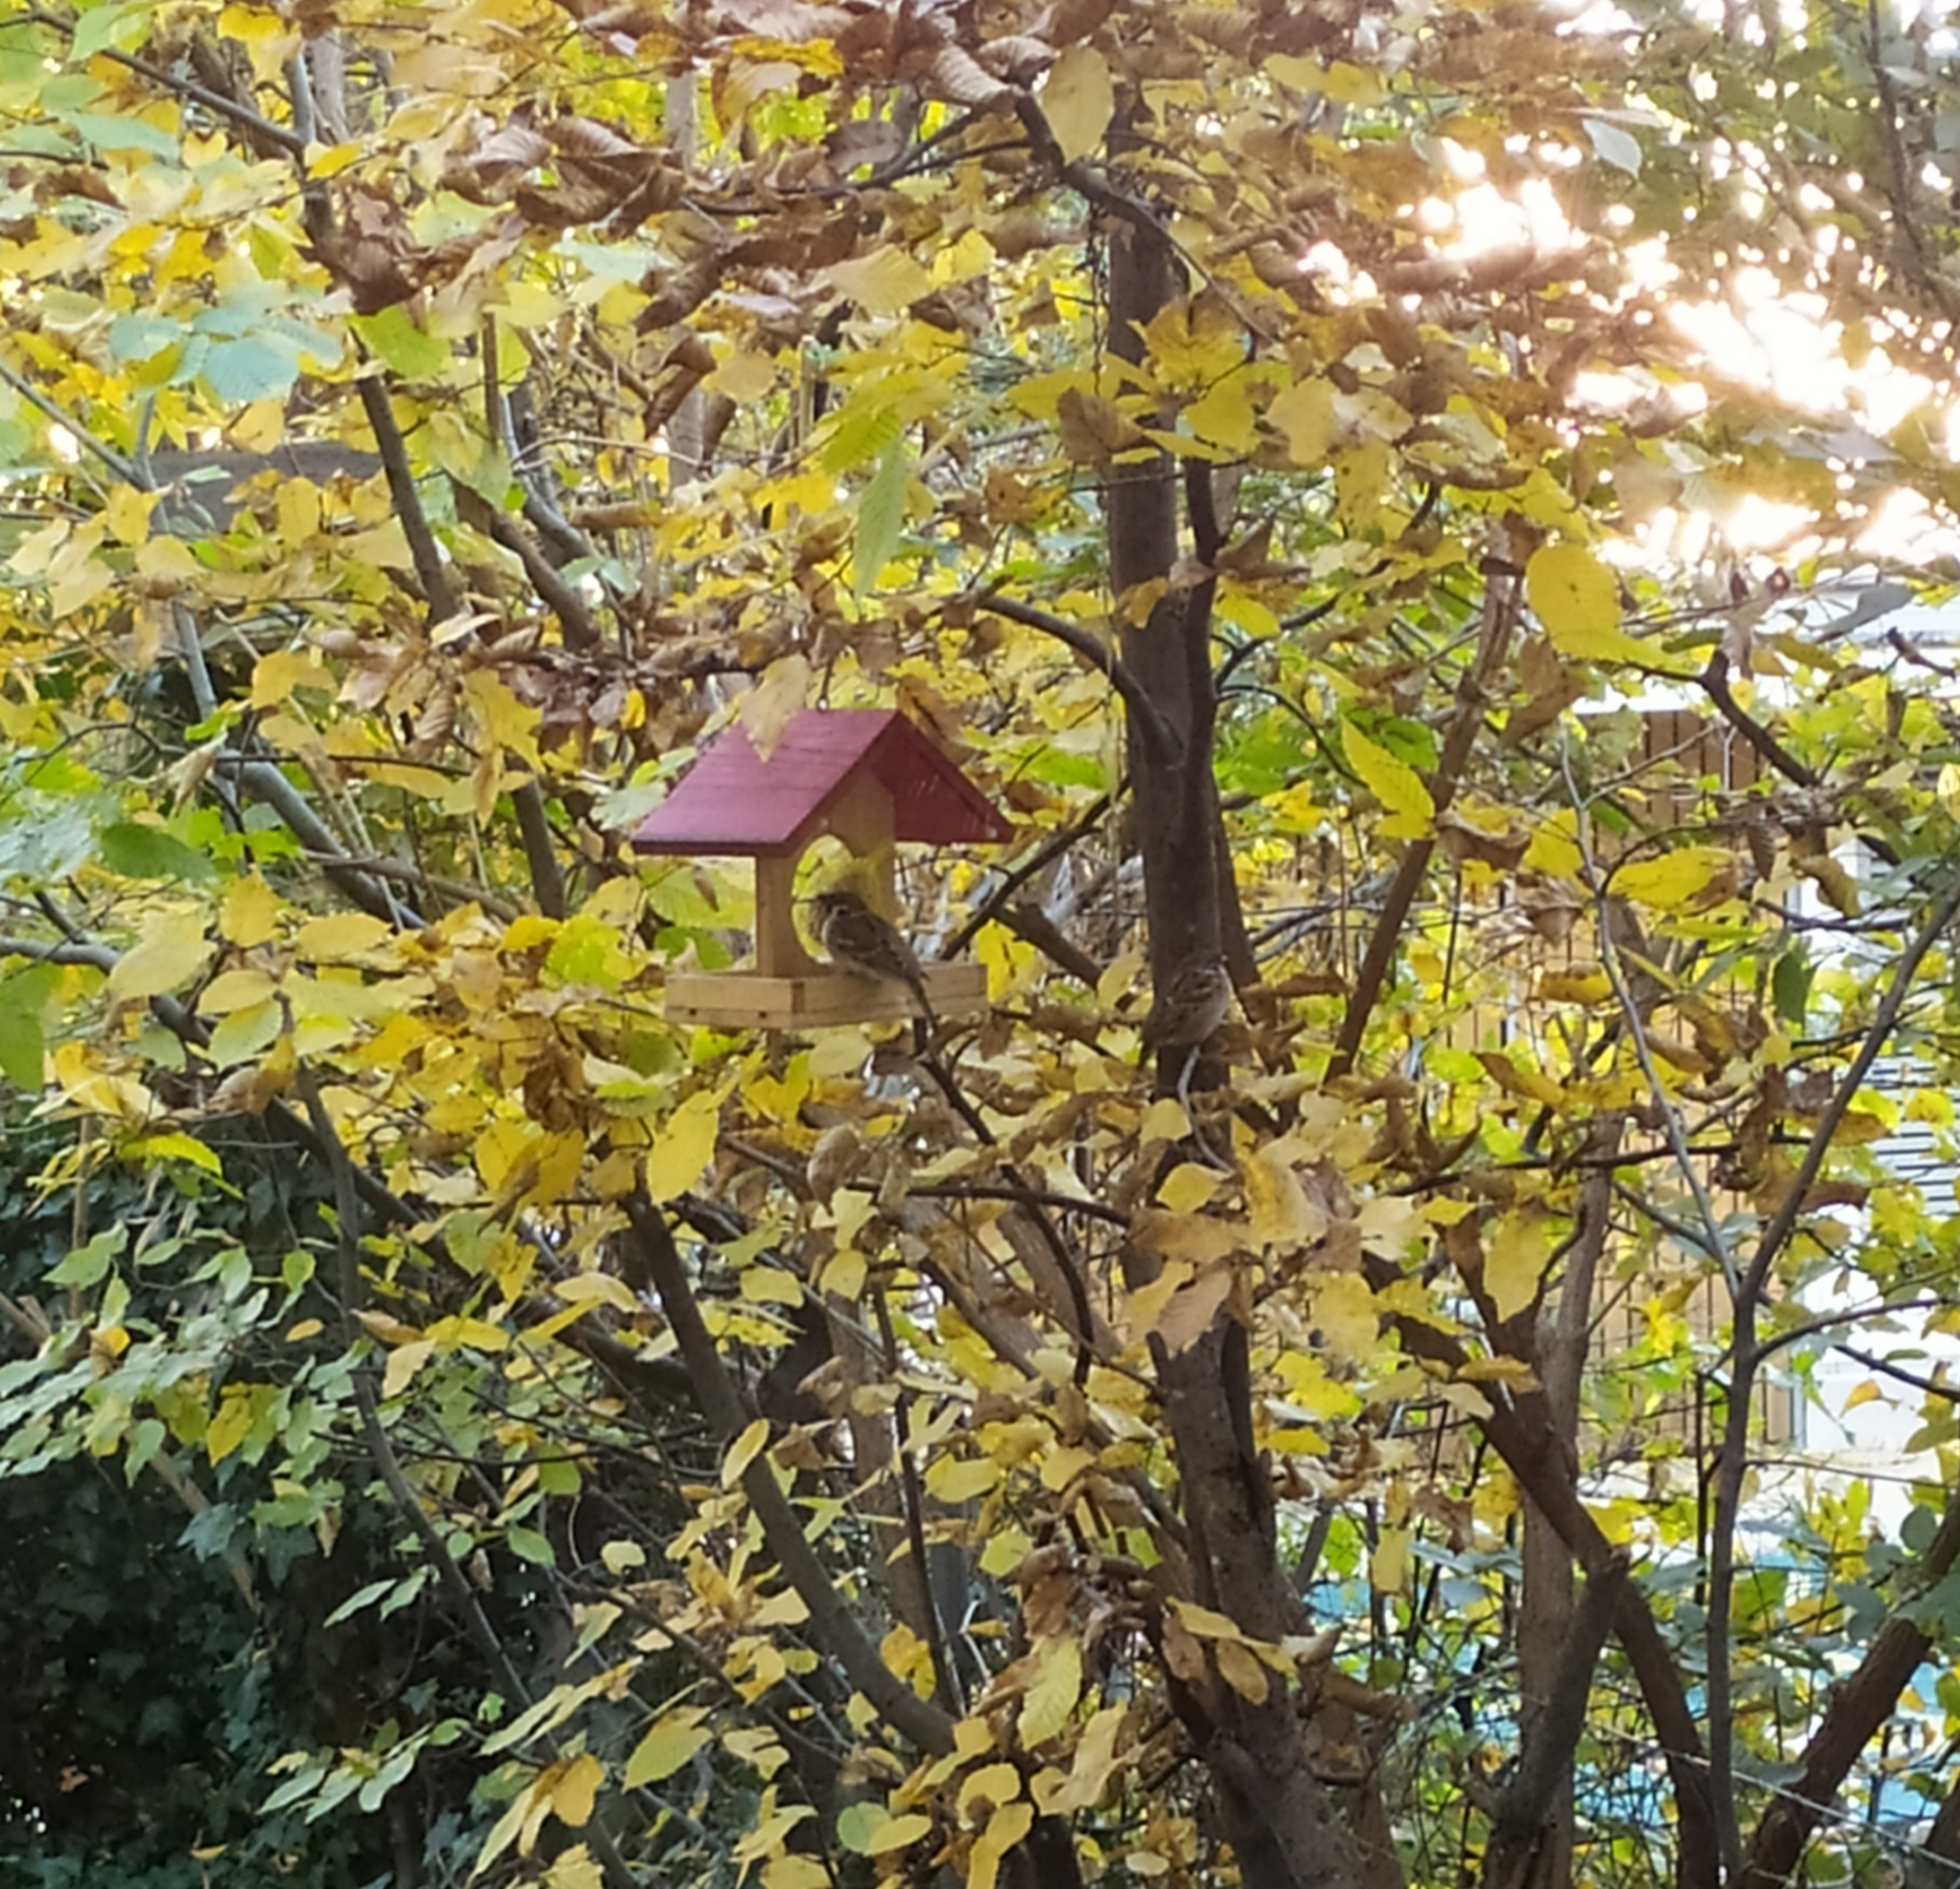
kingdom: Animalia
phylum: Chordata
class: Aves
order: Passeriformes
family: Passeridae
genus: Passer
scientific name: Passer montanus
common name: Eurasian tree sparrow
